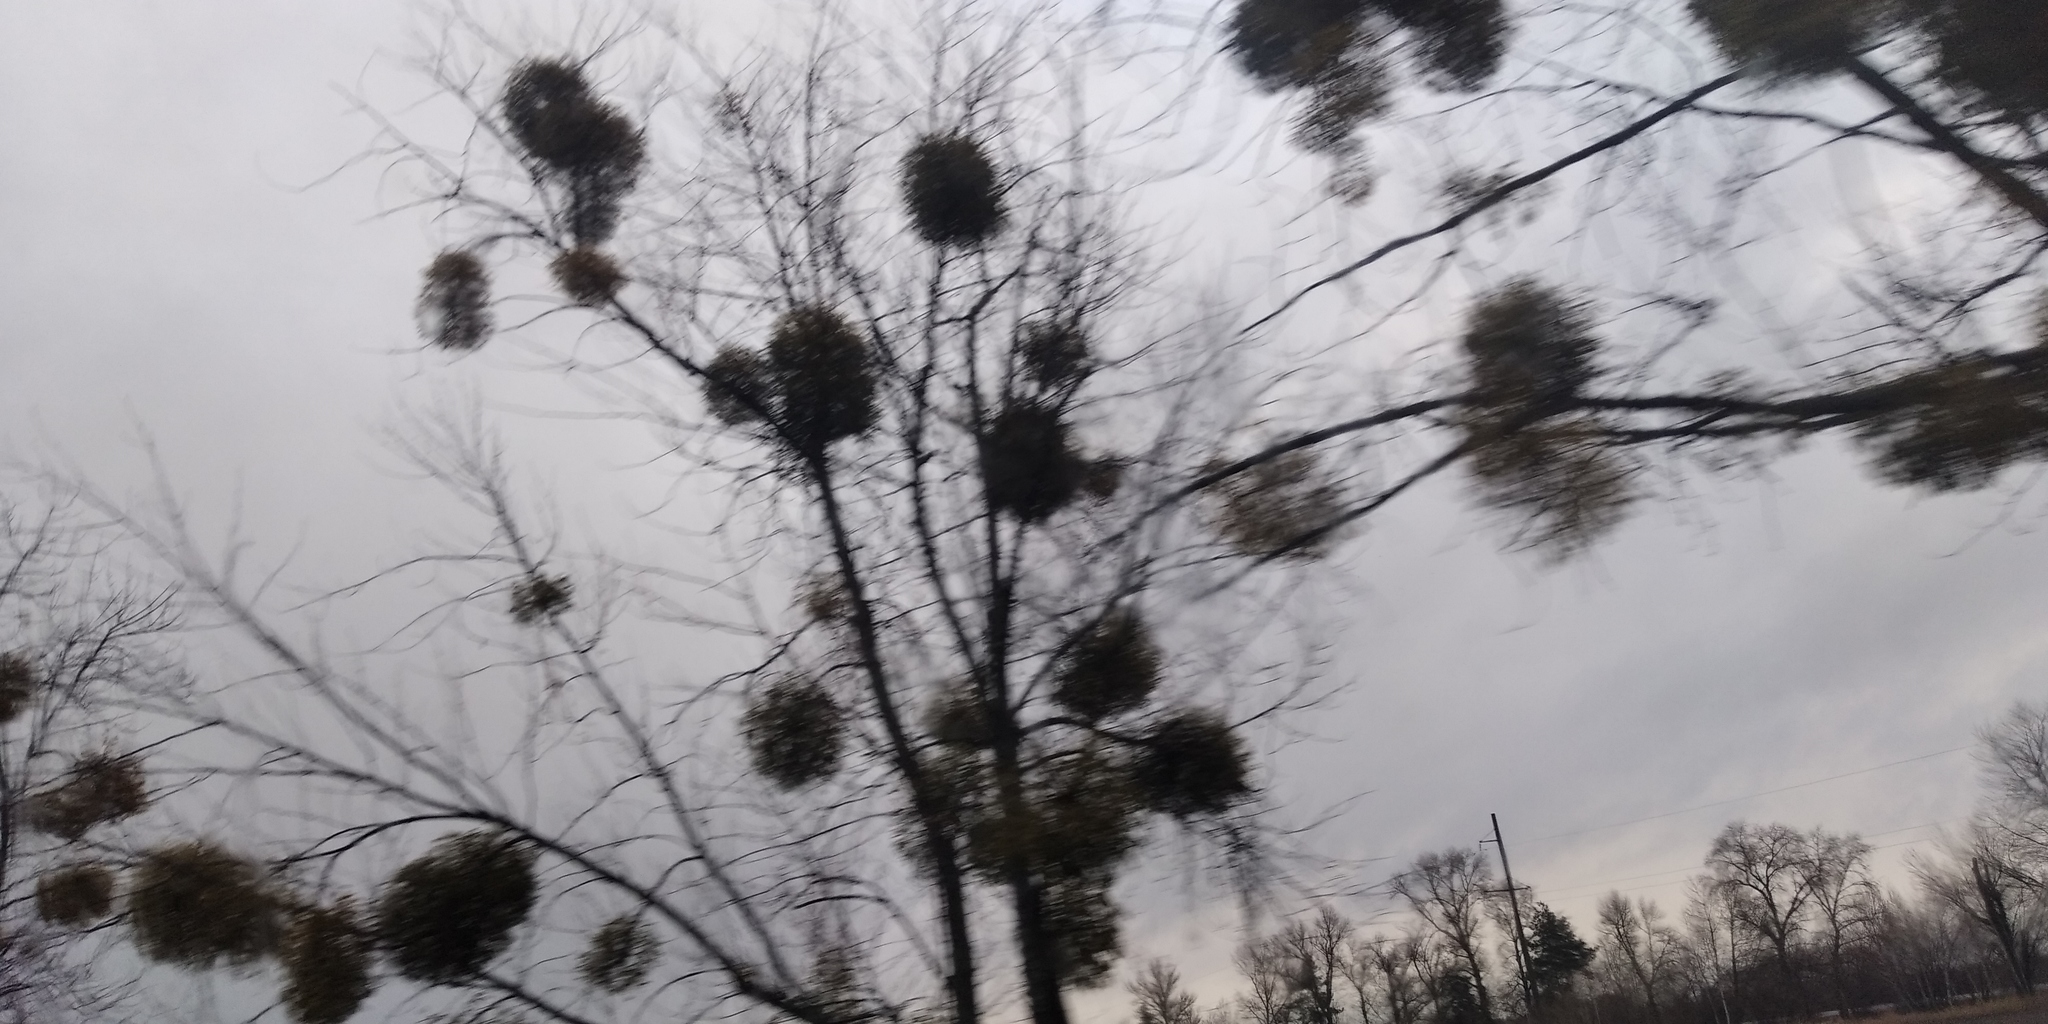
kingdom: Plantae
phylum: Tracheophyta
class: Magnoliopsida
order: Santalales
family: Viscaceae
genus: Viscum
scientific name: Viscum album
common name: Mistletoe
